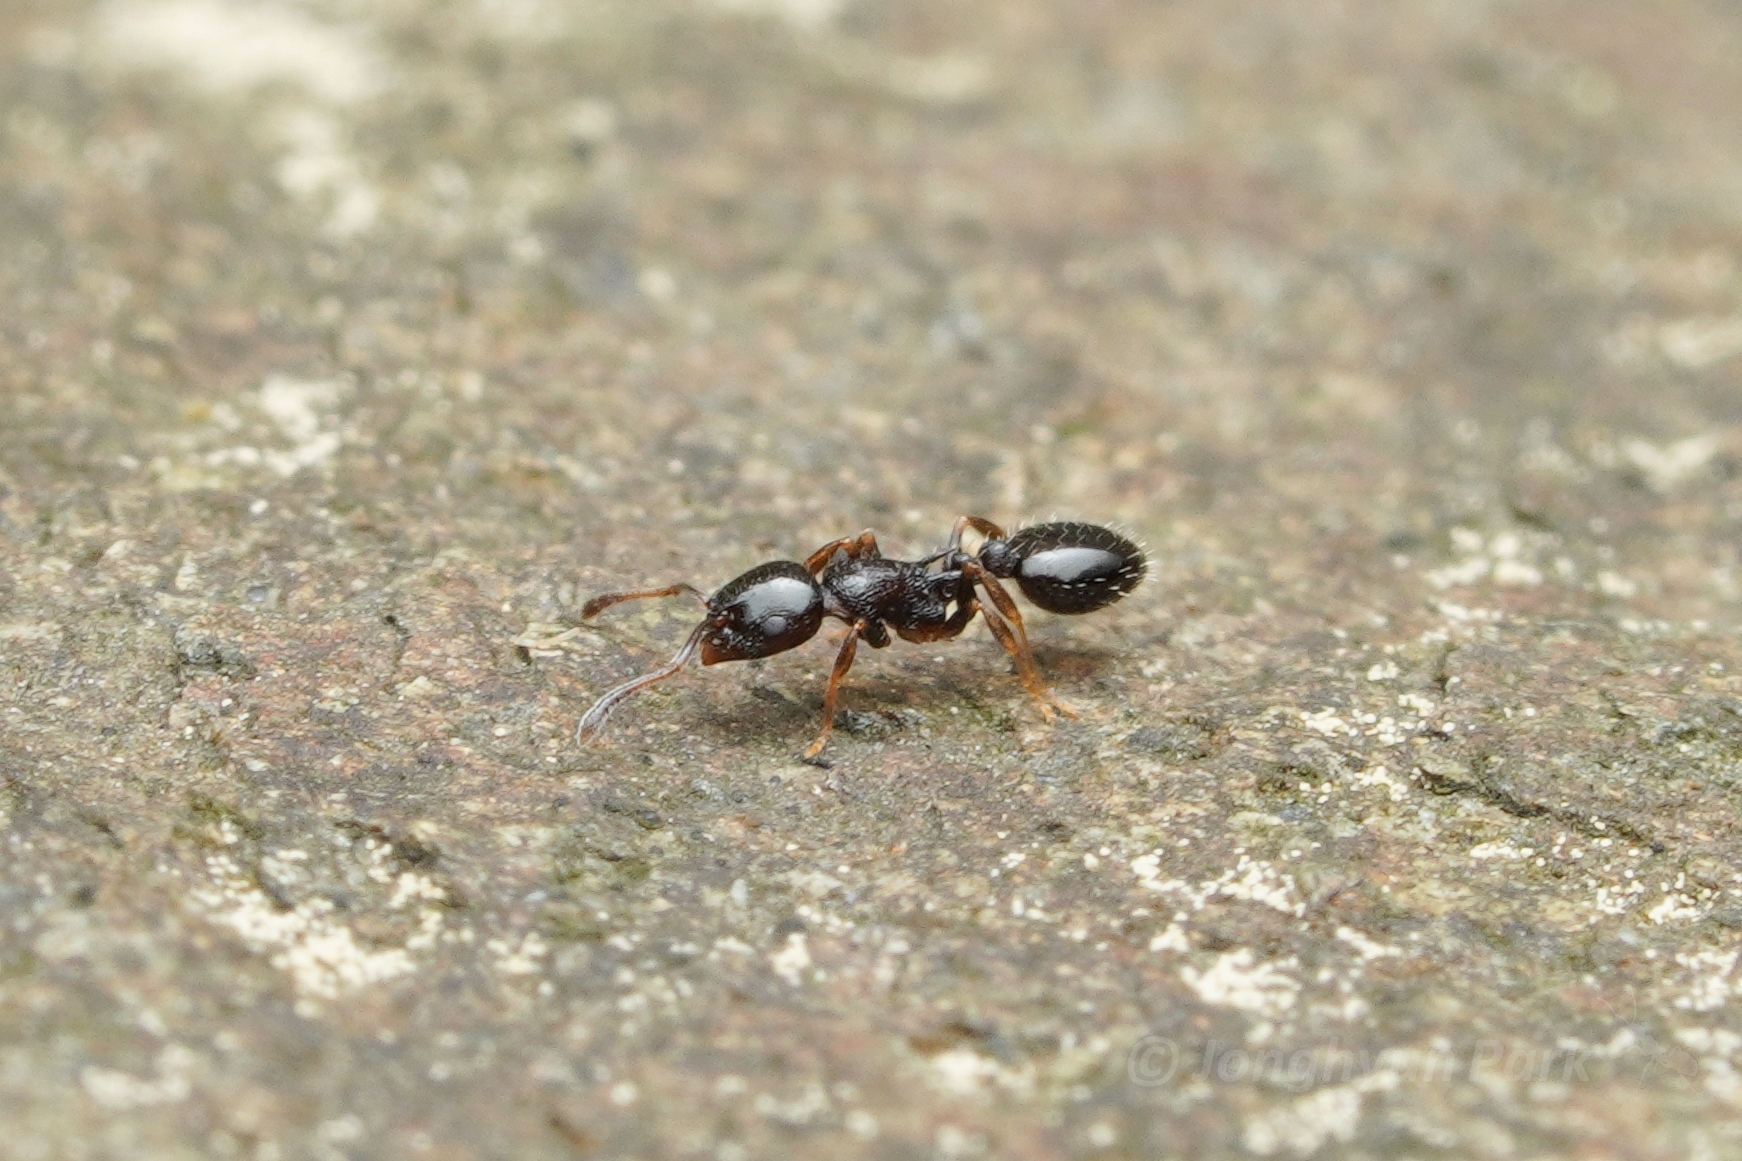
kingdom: Animalia
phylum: Arthropoda
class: Insecta
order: Hymenoptera
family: Formicidae
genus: Temnothorax
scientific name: Temnothorax longispinosus
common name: Long-spined acorn ant
